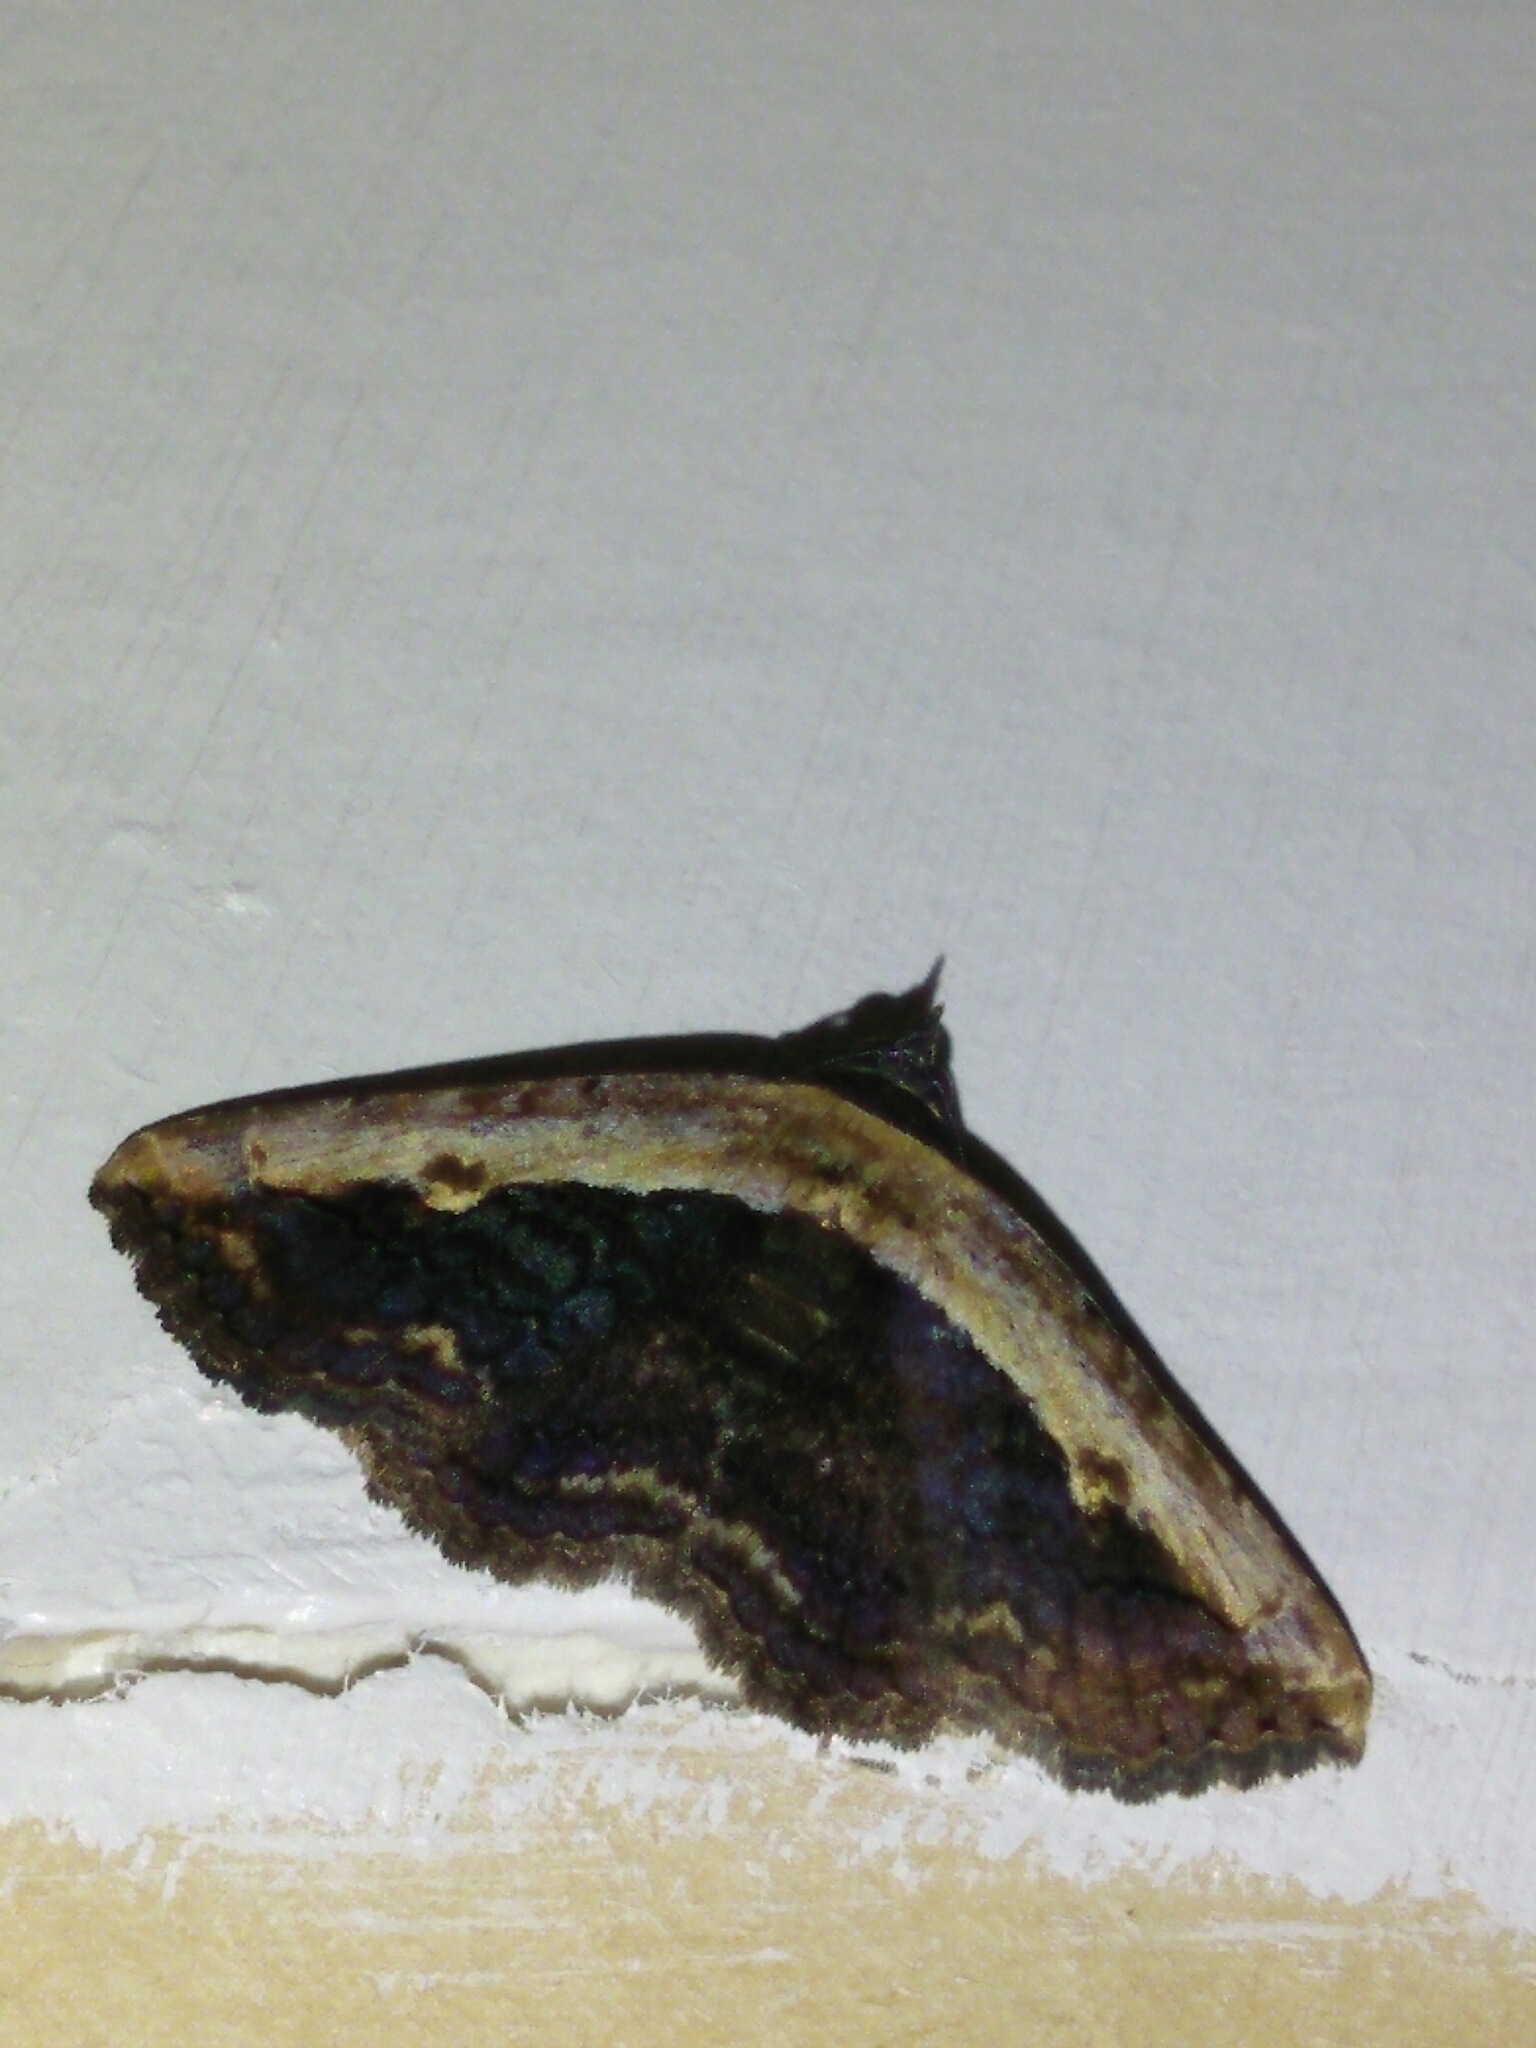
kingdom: Animalia
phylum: Arthropoda
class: Insecta
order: Lepidoptera
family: Erebidae
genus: Selenisa
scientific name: Selenisa sueroides
